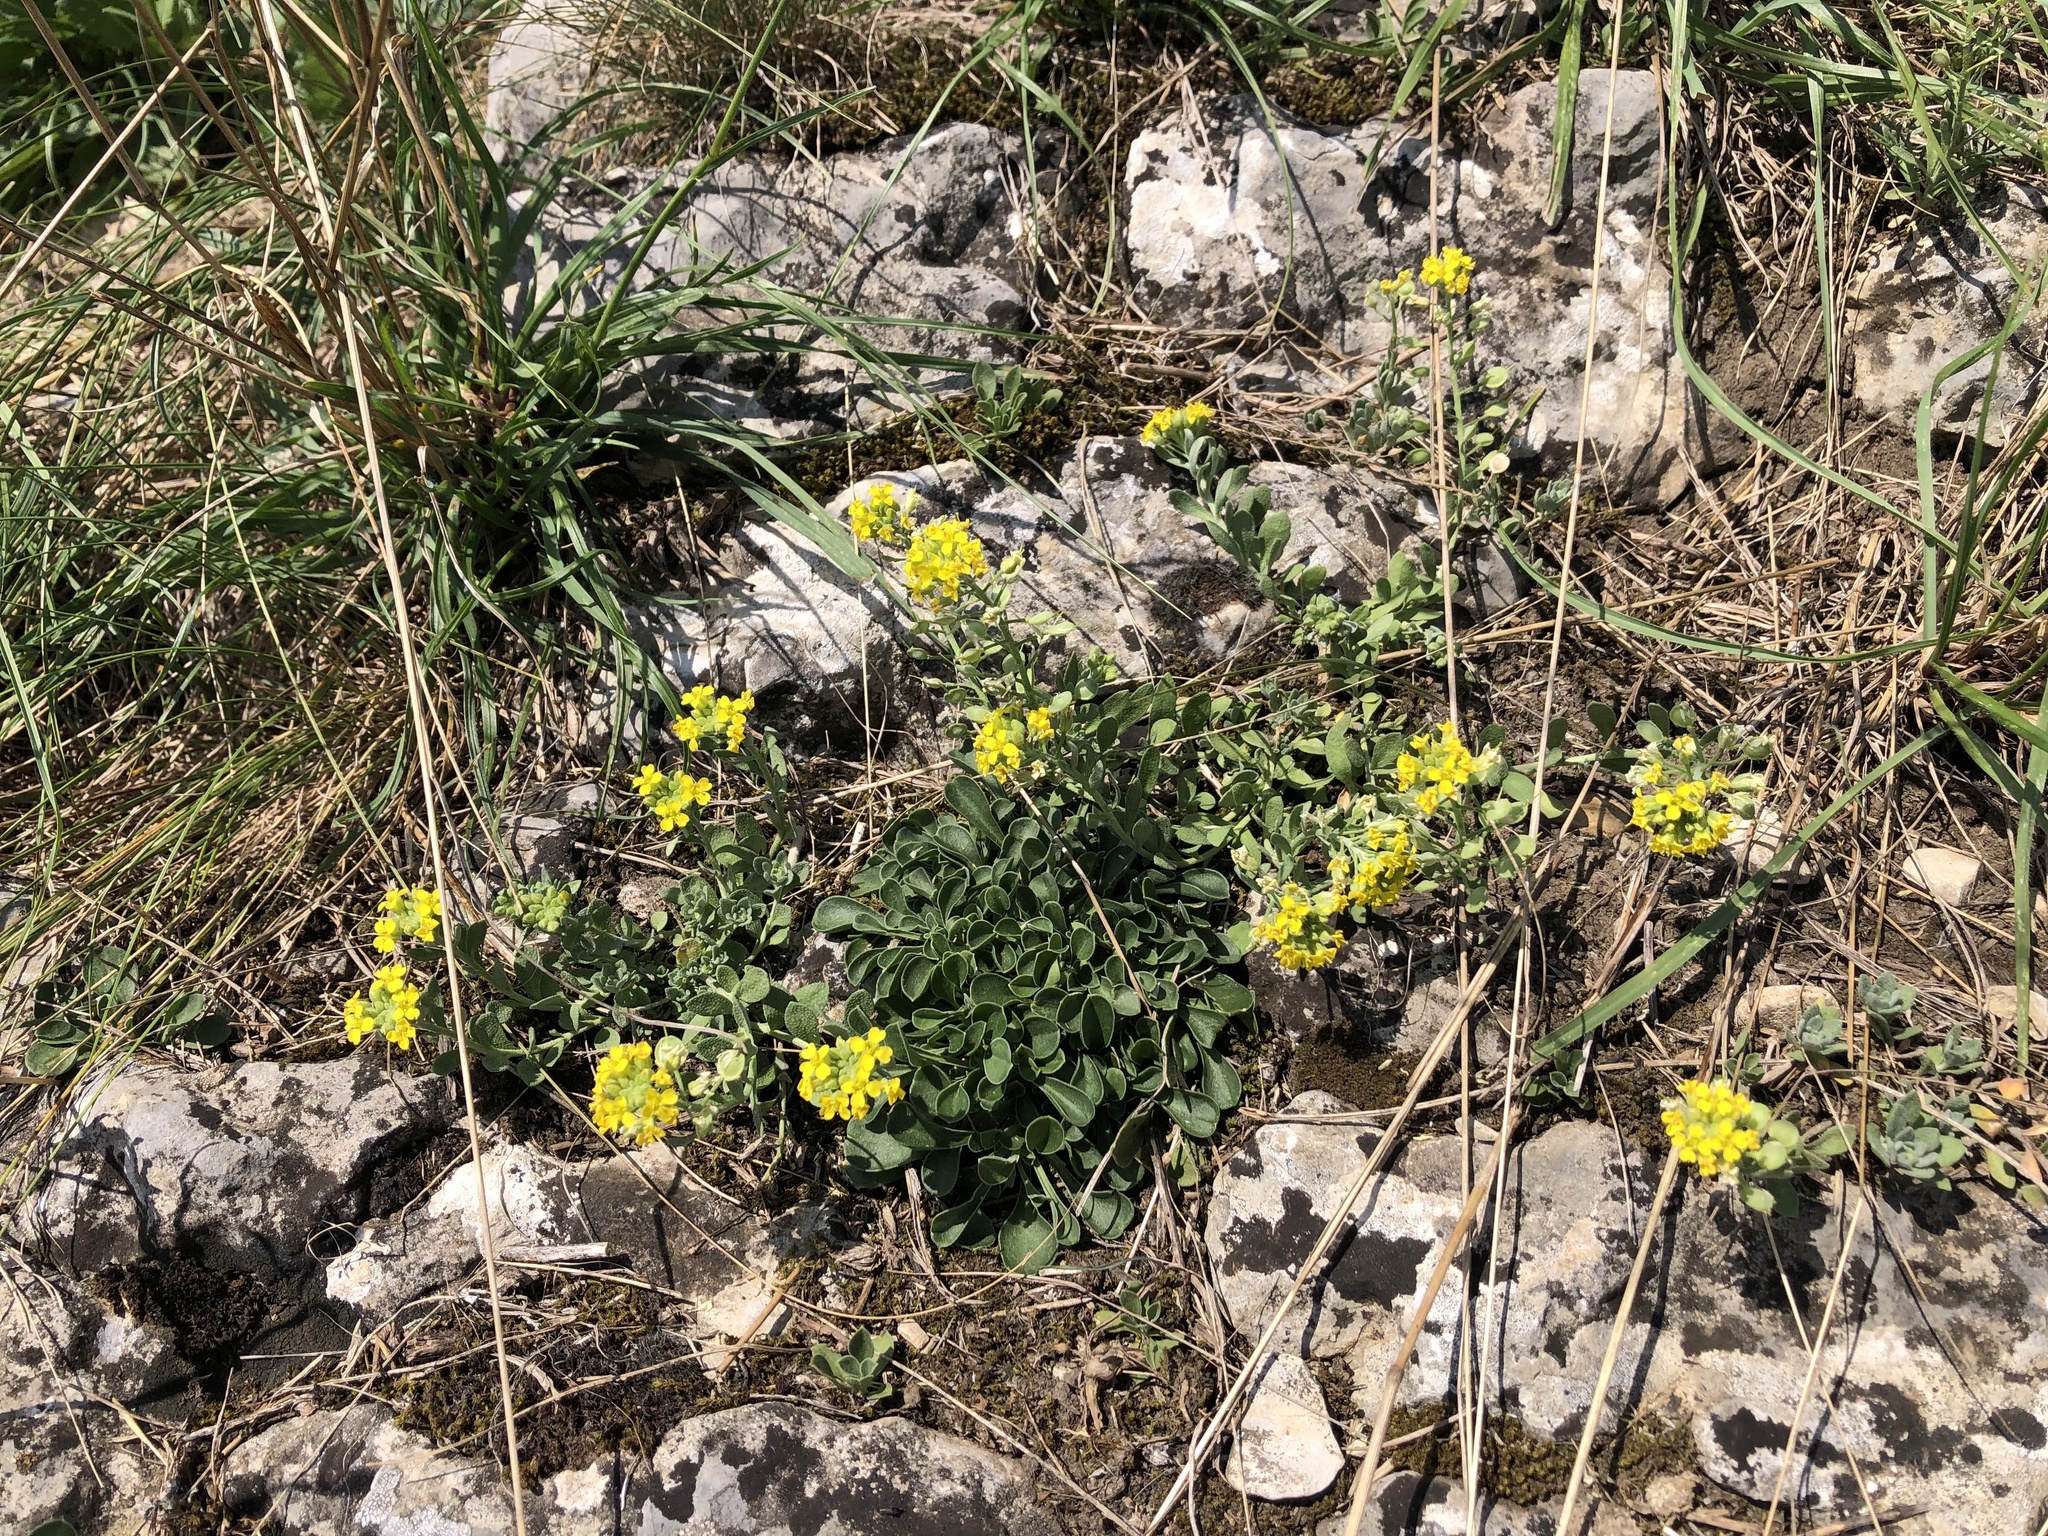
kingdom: Plantae
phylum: Tracheophyta
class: Magnoliopsida
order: Brassicales
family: Brassicaceae
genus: Alyssum
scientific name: Alyssum gmelinii
